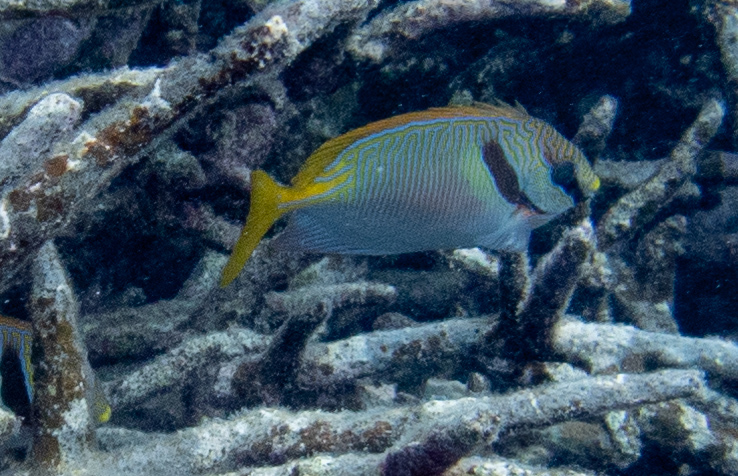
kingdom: Animalia
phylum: Chordata
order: Perciformes
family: Siganidae
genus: Siganus
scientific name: Siganus doliatus
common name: Barred spinefoot
